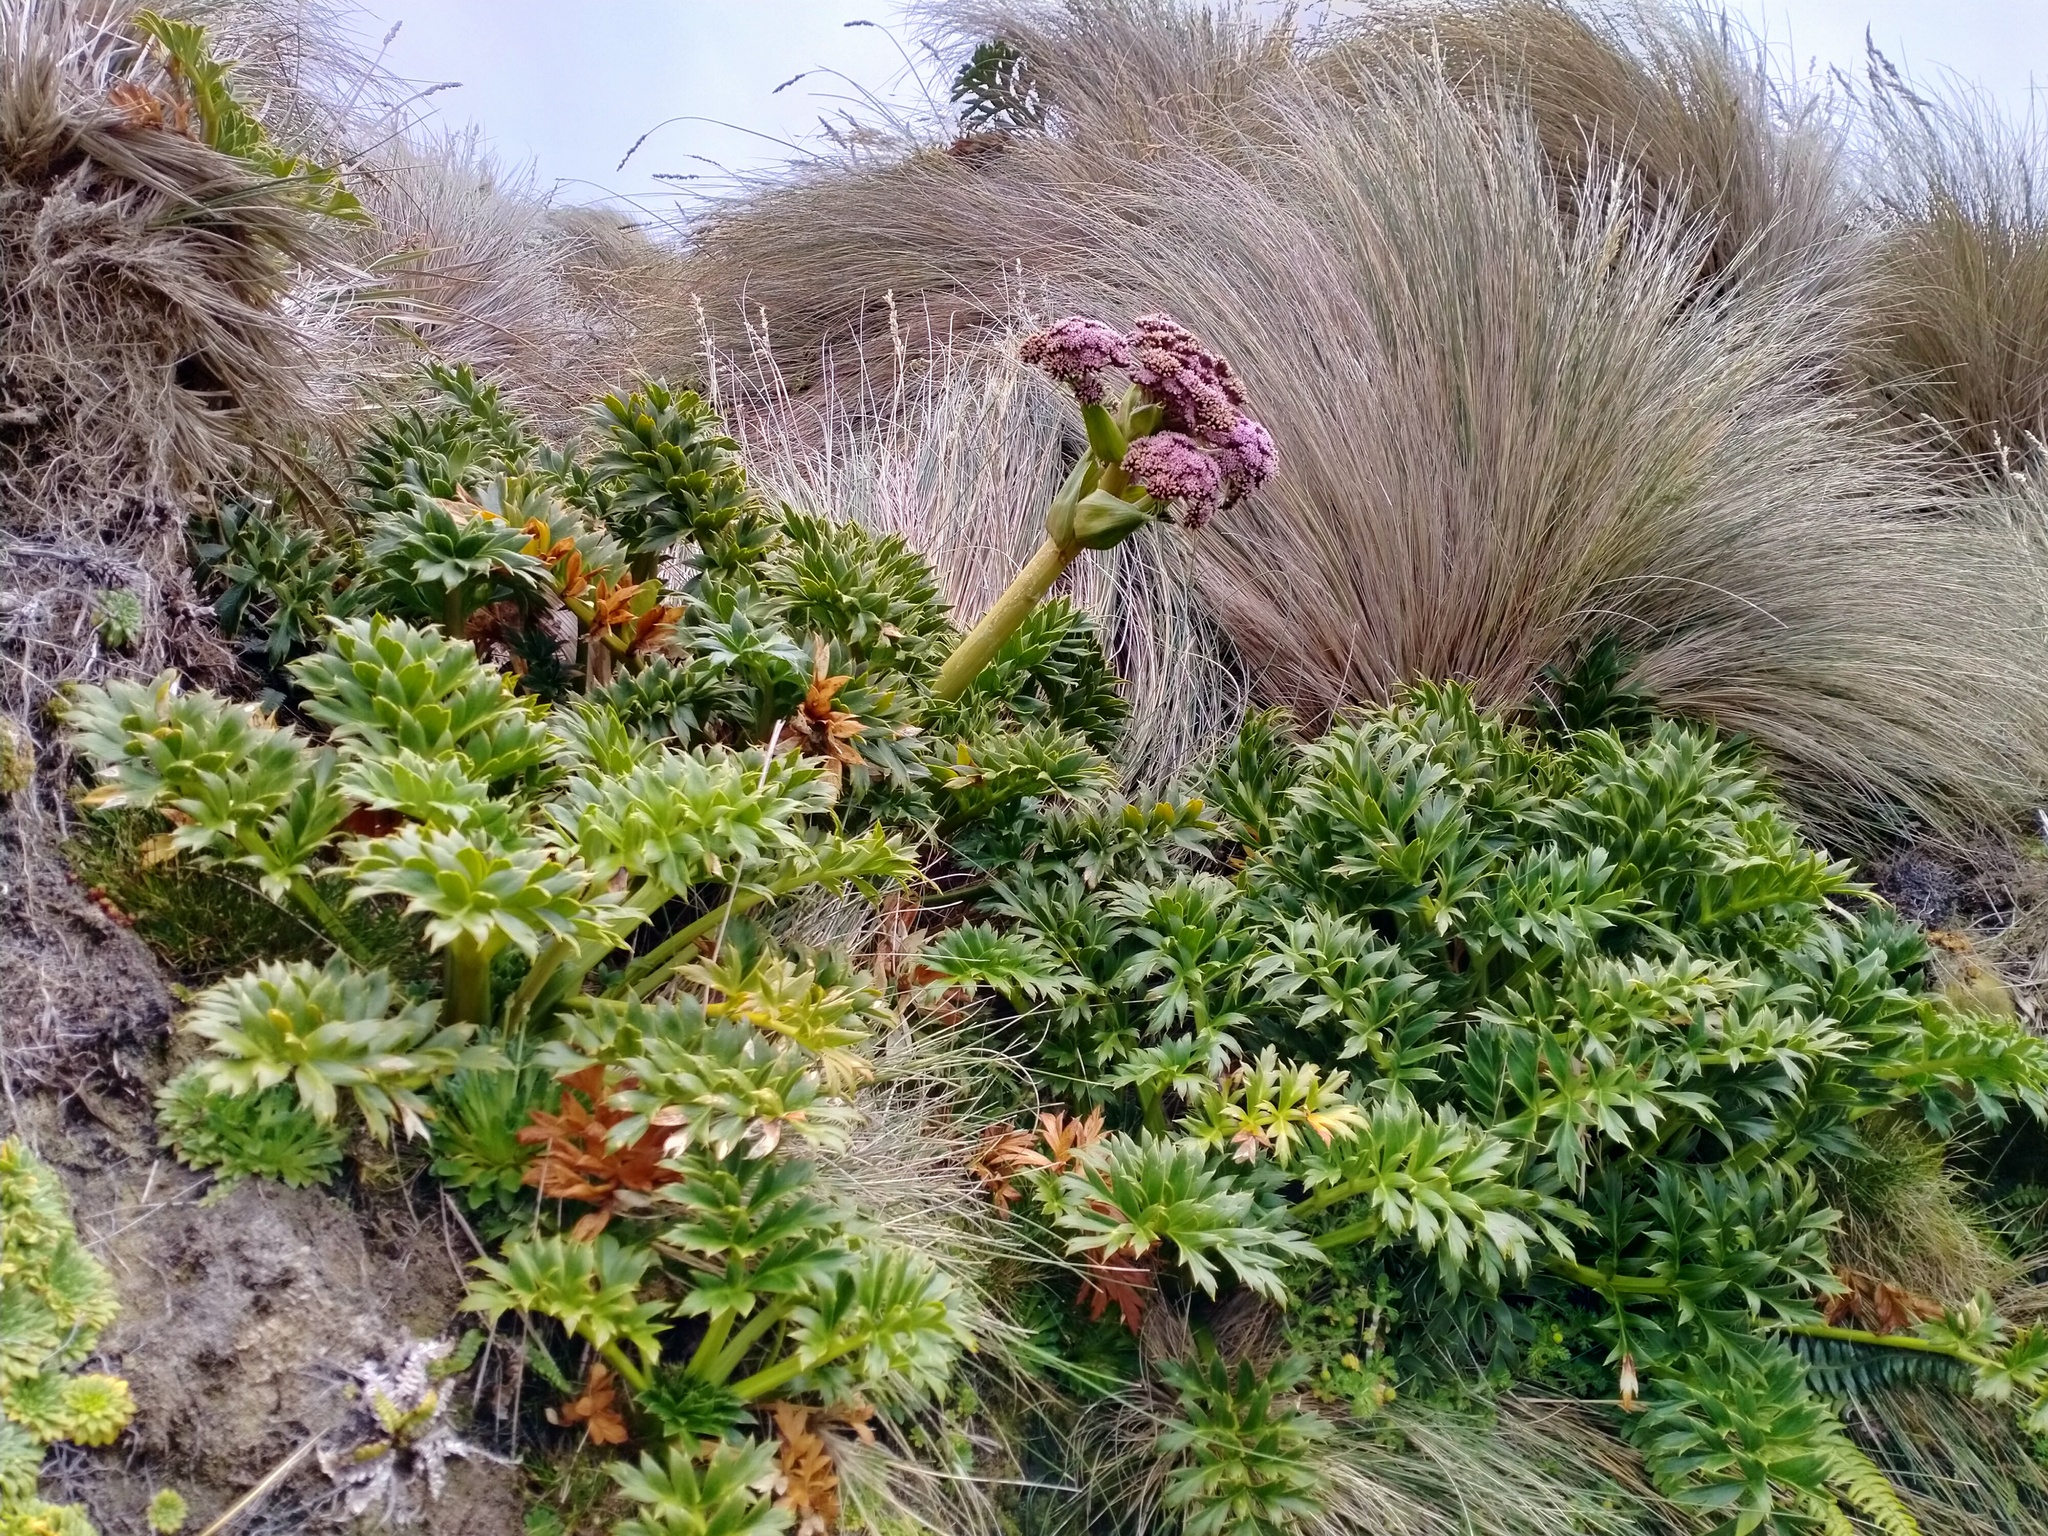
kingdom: Plantae
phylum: Tracheophyta
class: Magnoliopsida
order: Apiales
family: Apiaceae
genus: Anisotome
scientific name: Anisotome latifolia
